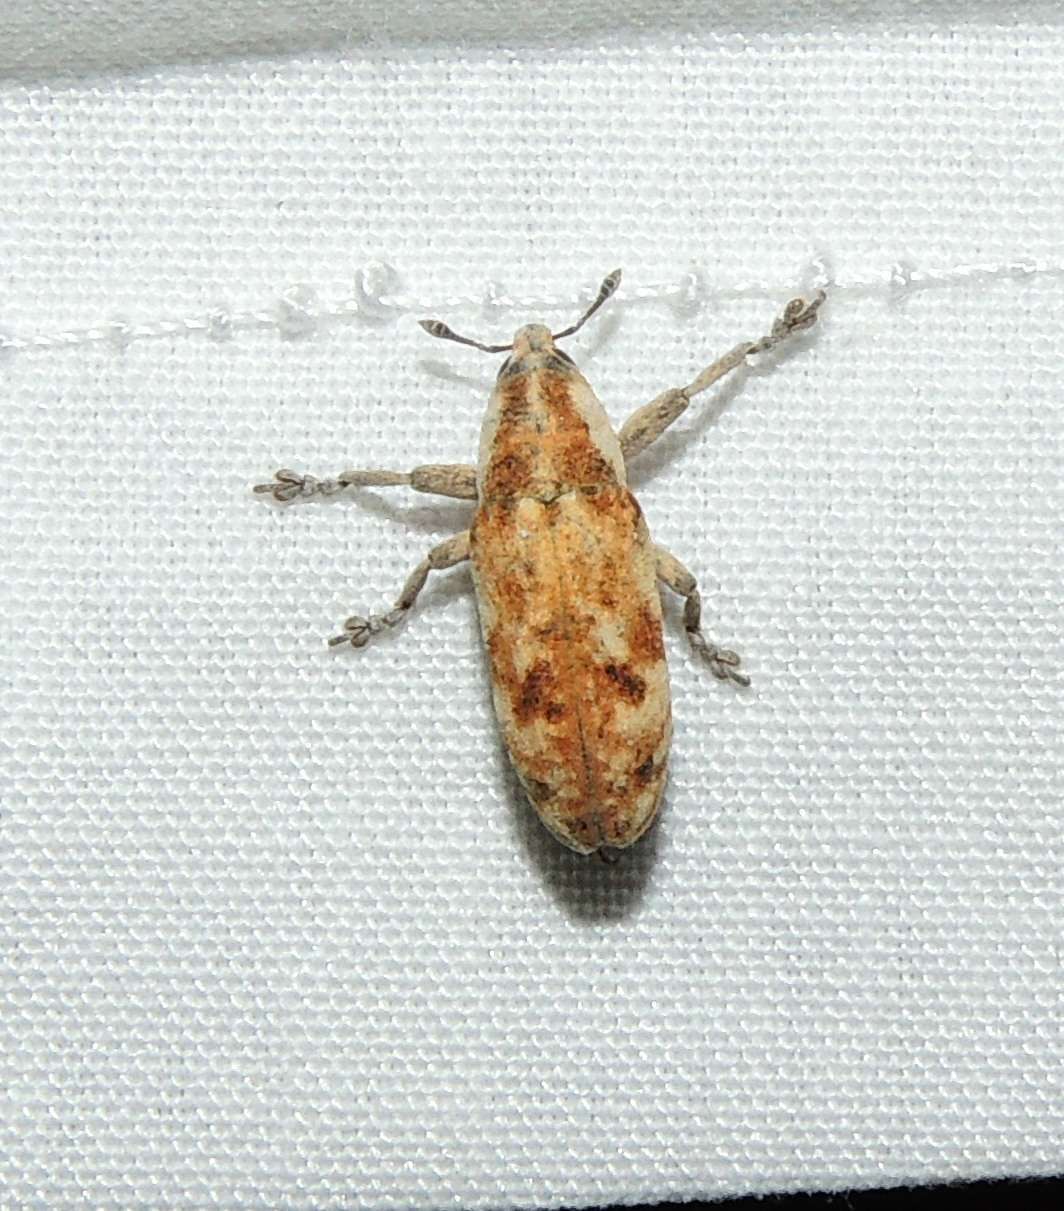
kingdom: Animalia
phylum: Arthropoda
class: Insecta
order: Coleoptera
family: Curculionidae
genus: Hypolixus
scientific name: Hypolixus
